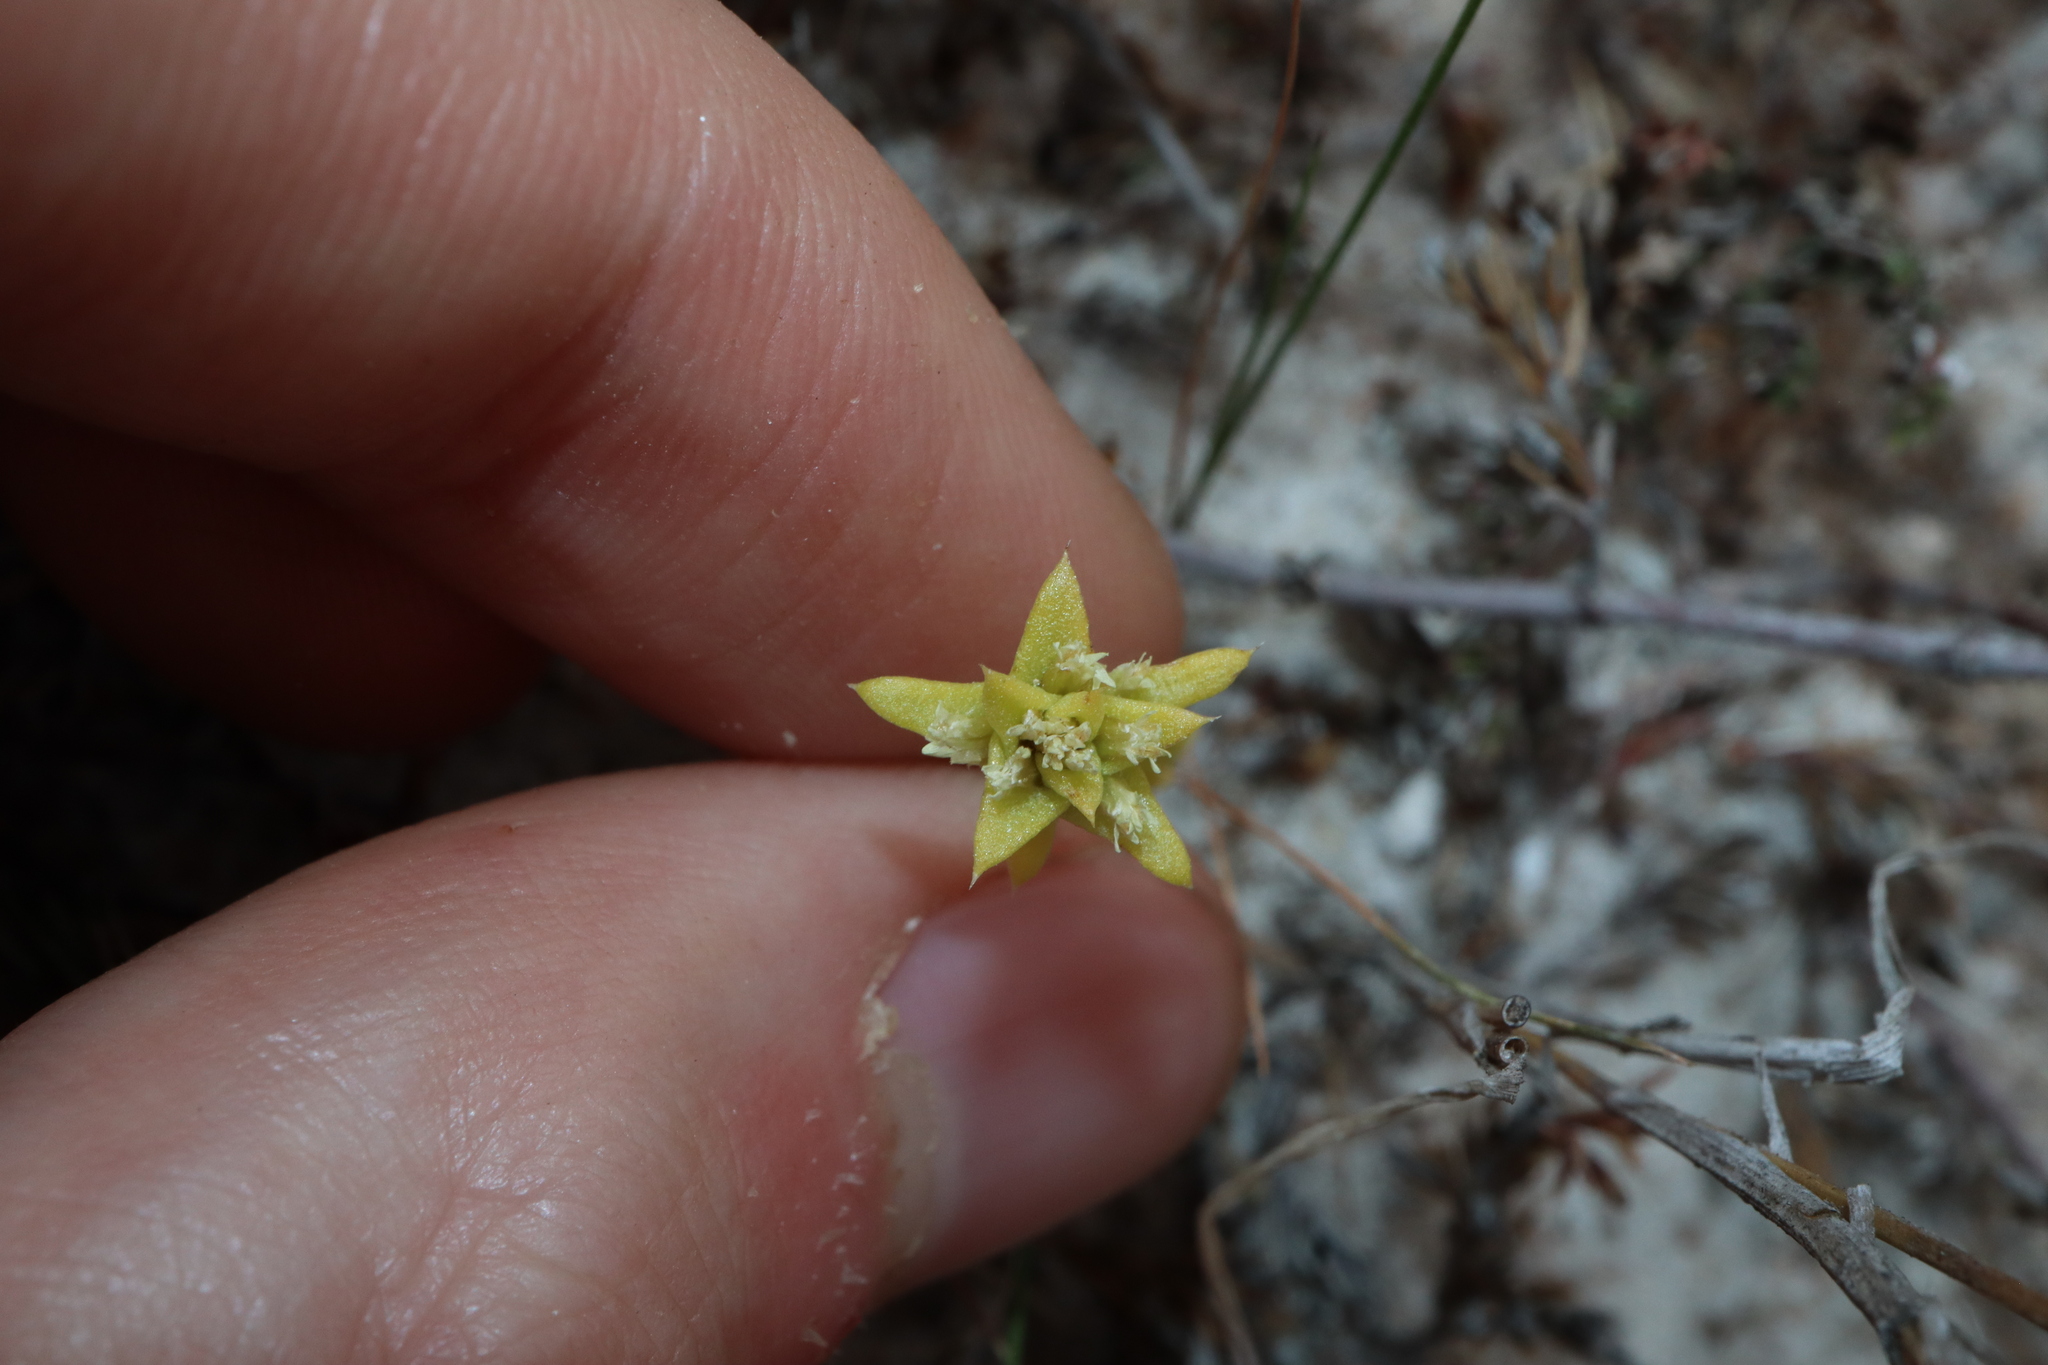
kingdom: Plantae
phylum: Tracheophyta
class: Magnoliopsida
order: Asterales
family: Asteraceae
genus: Fitzwillia
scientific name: Fitzwillia axilliflora
